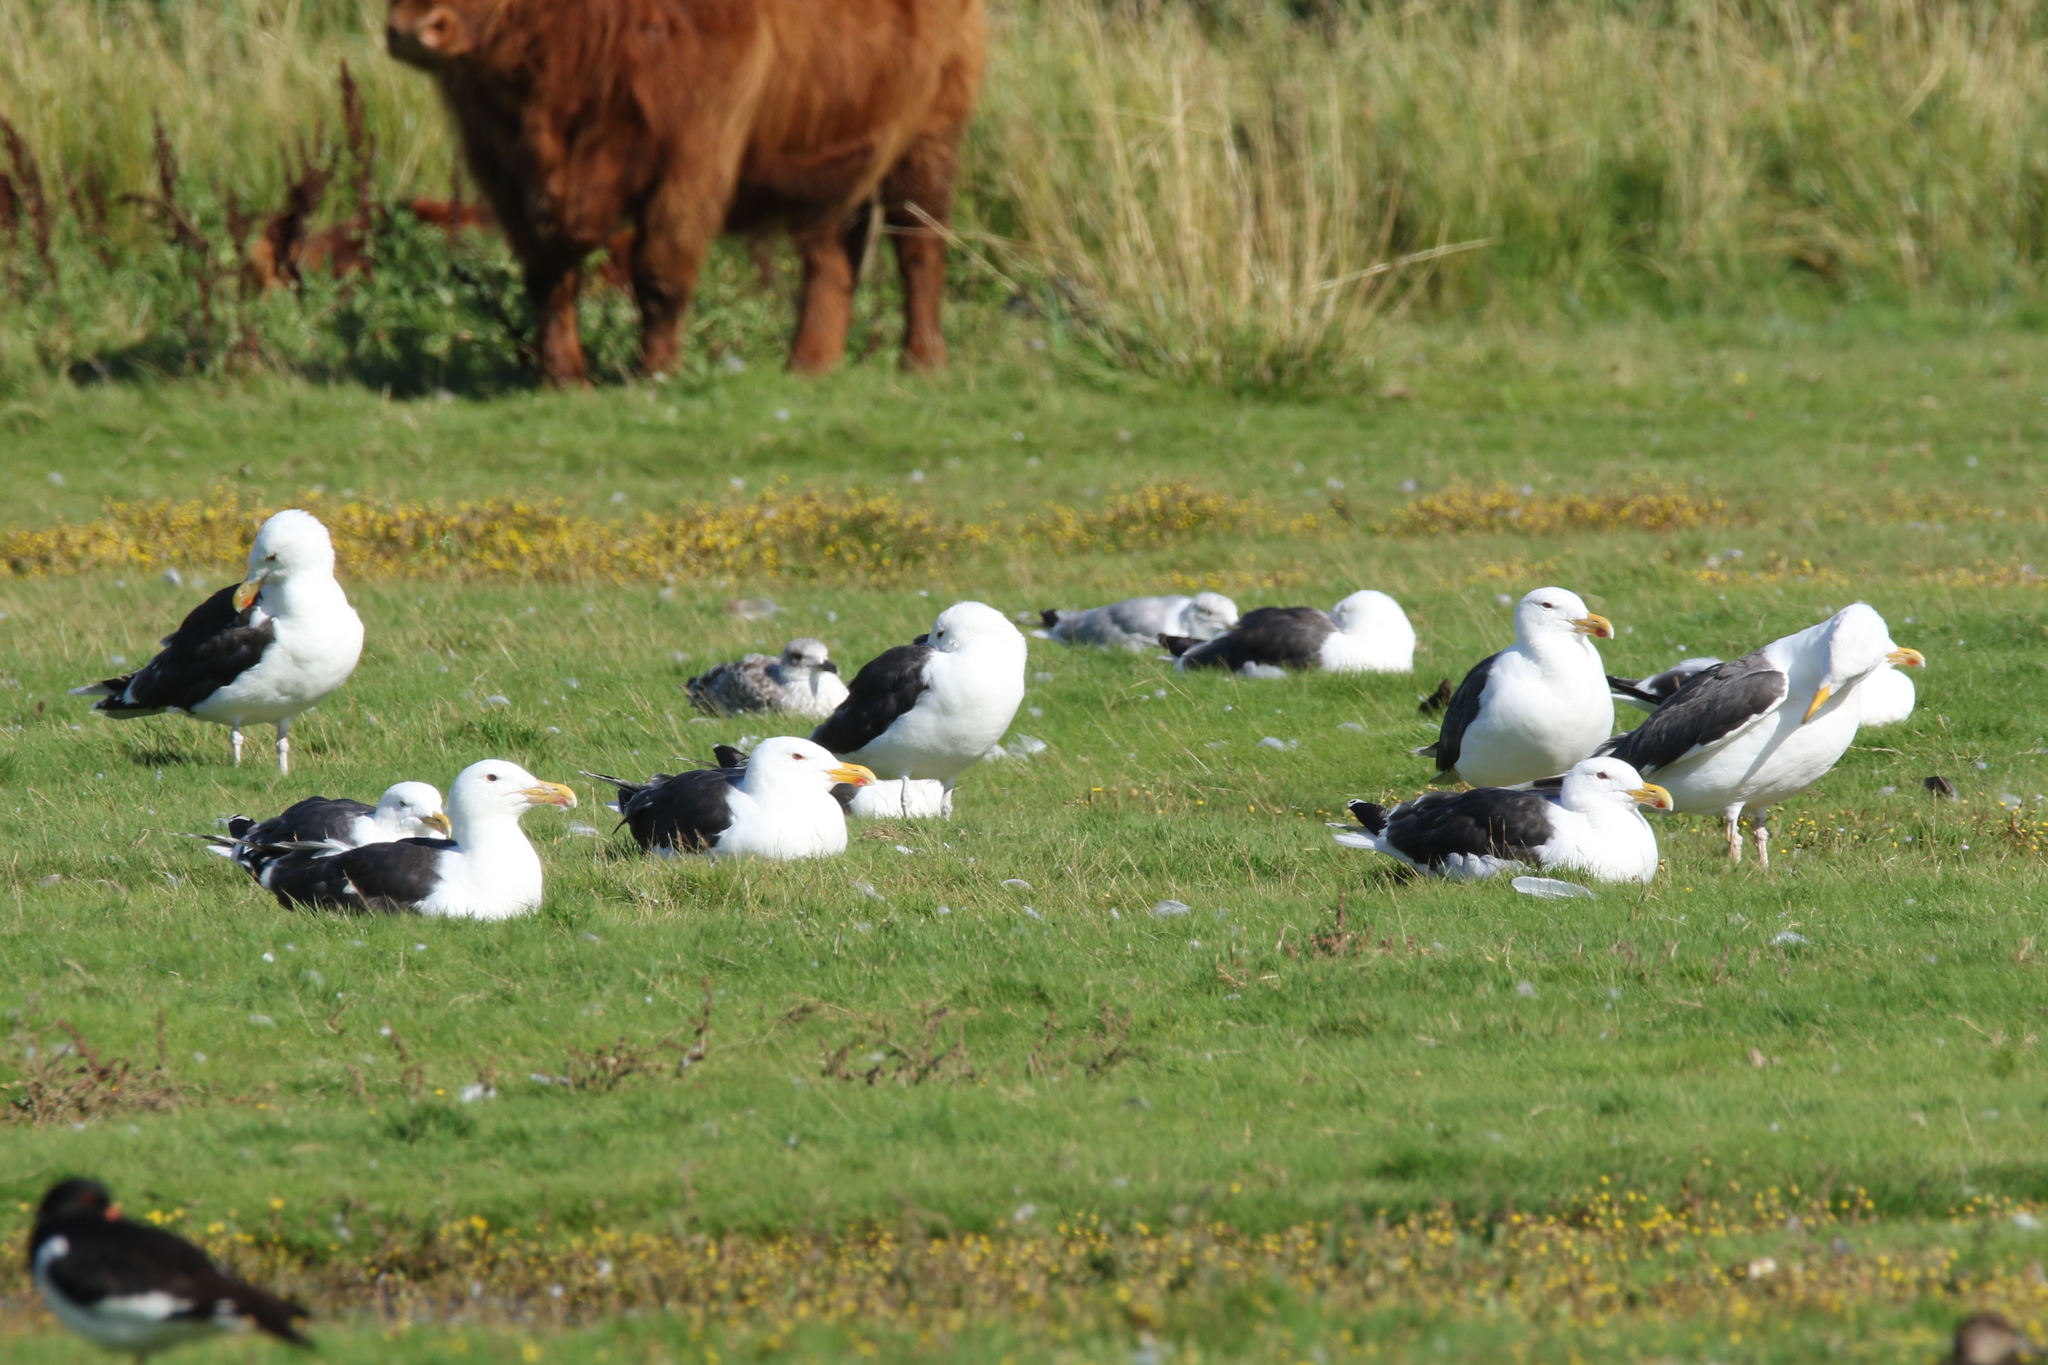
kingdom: Animalia
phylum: Chordata
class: Aves
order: Charadriiformes
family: Laridae
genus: Larus
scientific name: Larus marinus
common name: Great black-backed gull
